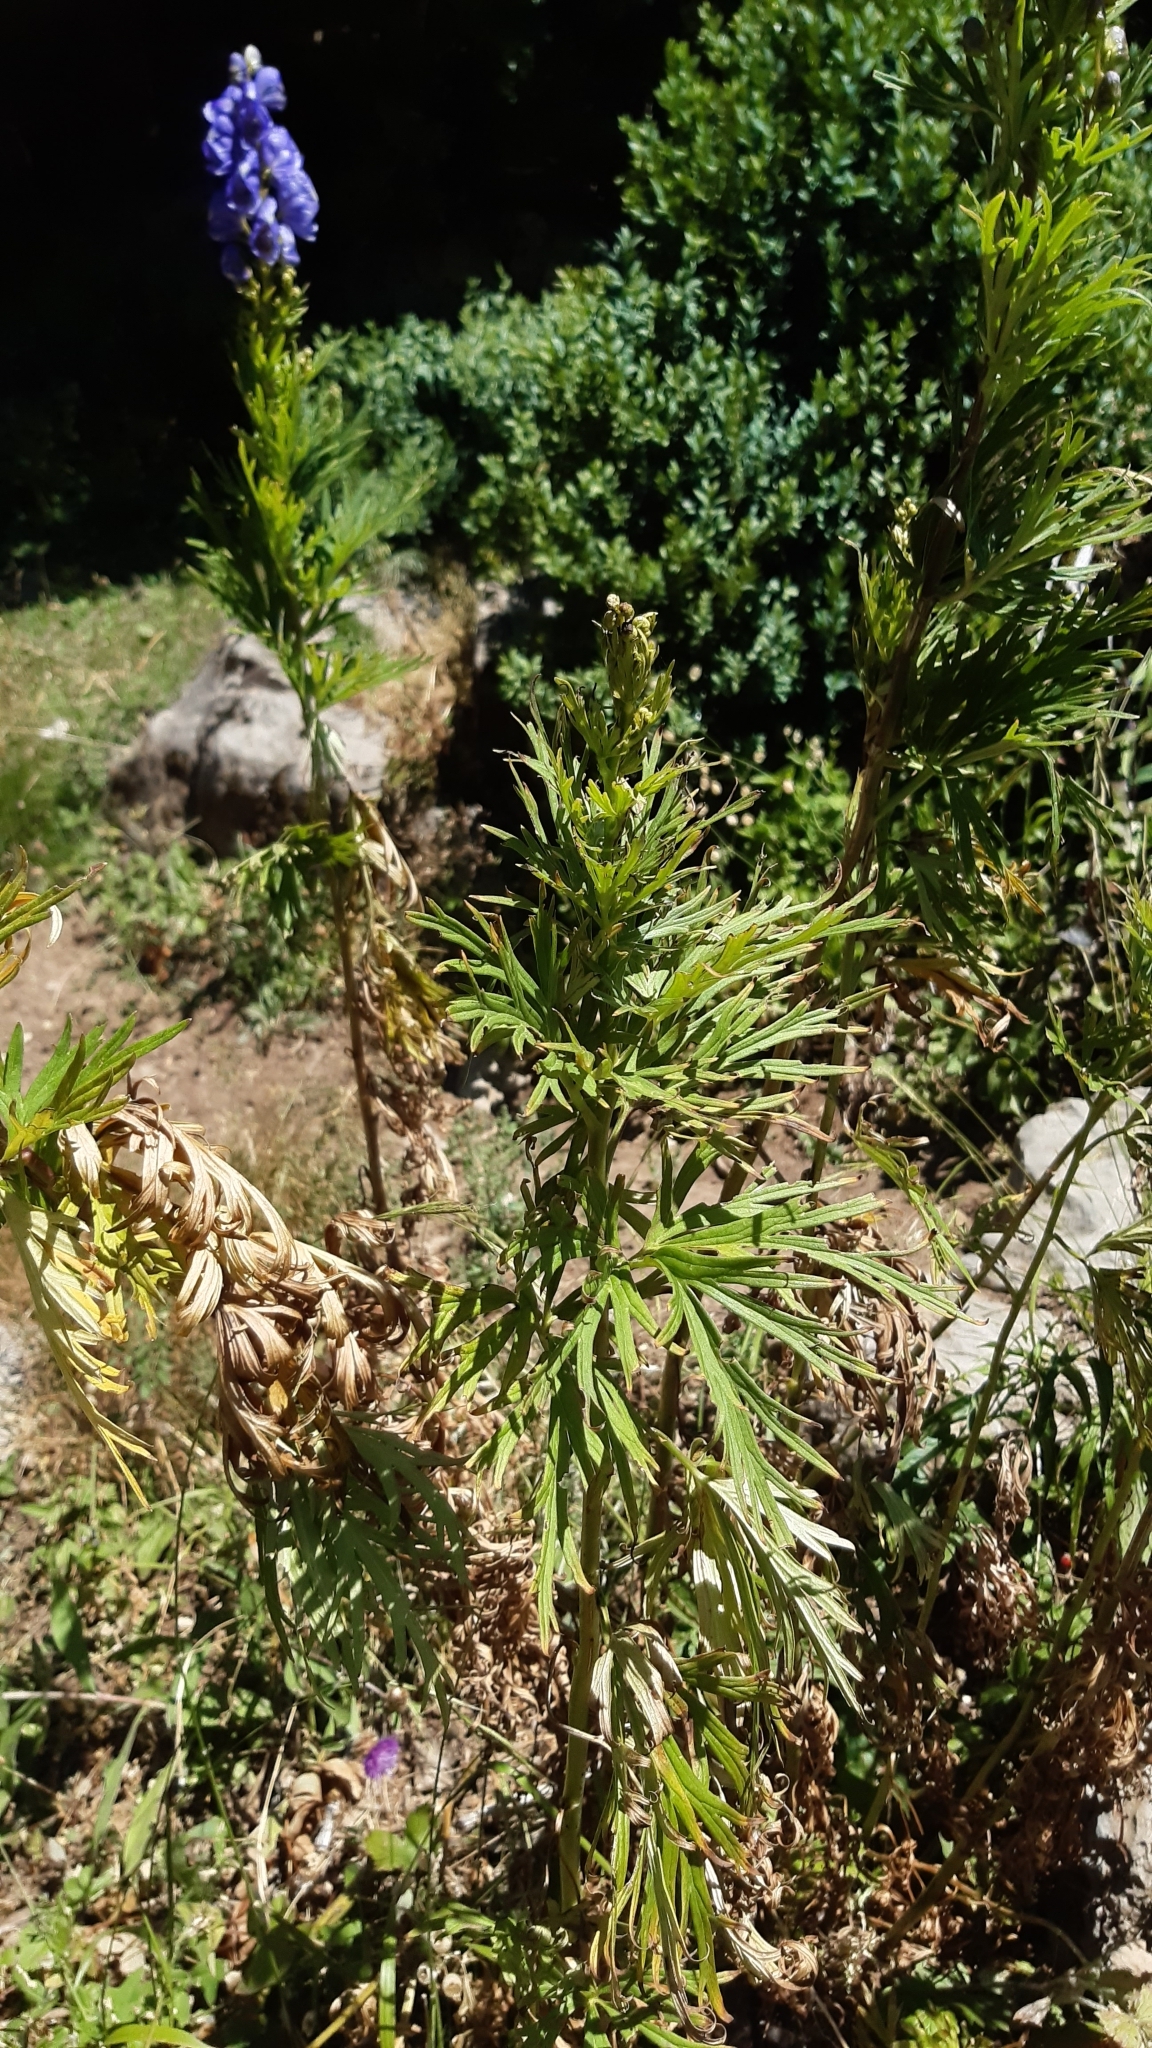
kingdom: Plantae
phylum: Tracheophyta
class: Magnoliopsida
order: Ranunculales
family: Ranunculaceae
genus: Aconitum
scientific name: Aconitum napellus
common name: Garden monkshood
